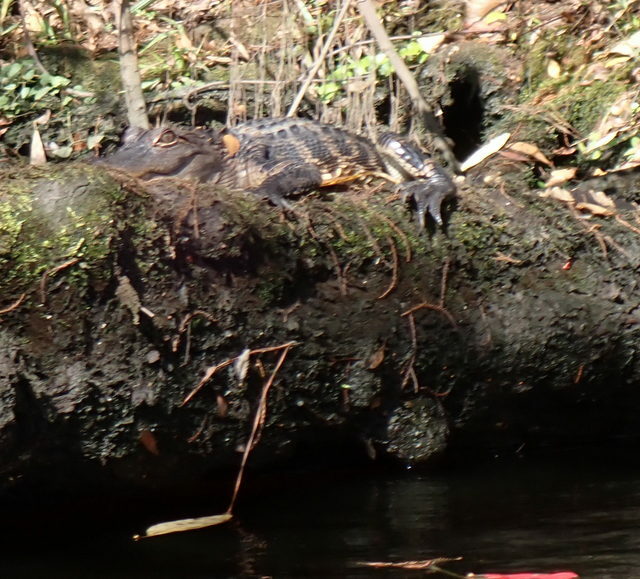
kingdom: Animalia
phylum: Chordata
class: Crocodylia
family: Alligatoridae
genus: Alligator
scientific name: Alligator mississippiensis
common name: American alligator
